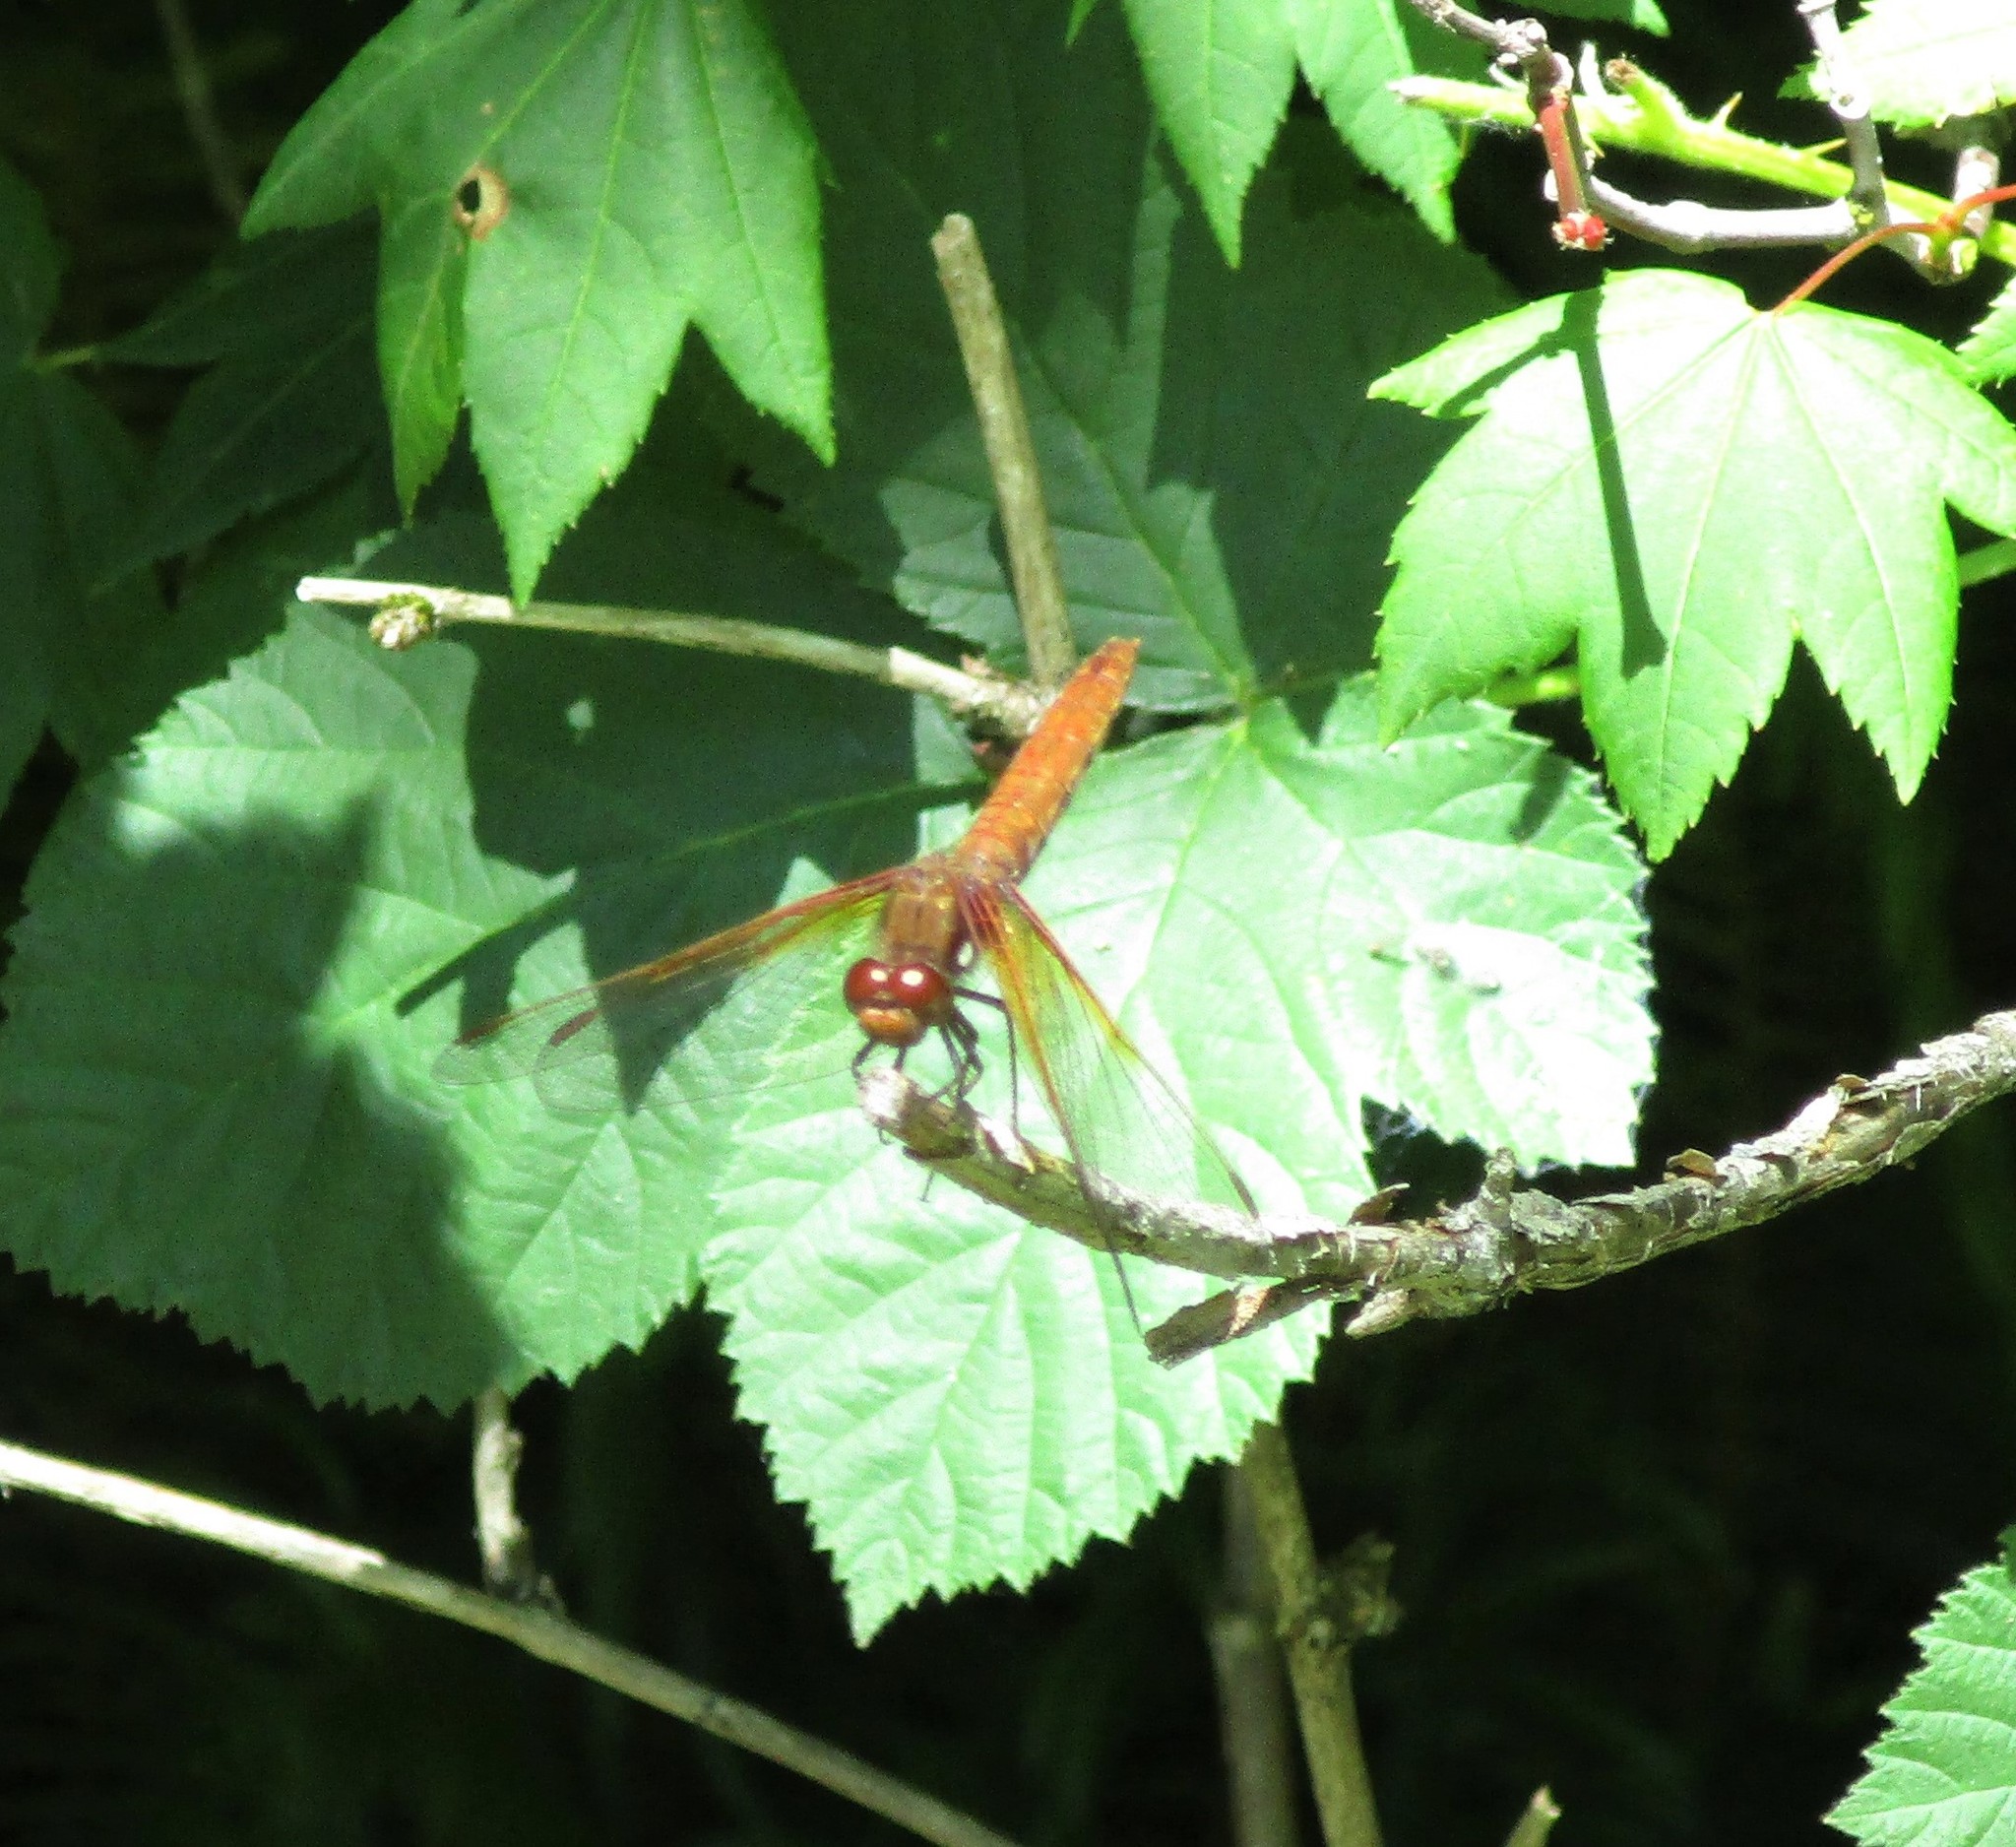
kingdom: Animalia
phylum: Arthropoda
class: Insecta
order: Odonata
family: Libellulidae
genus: Sympetrum
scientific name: Sympetrum illotum
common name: Cardinal meadowhawk
